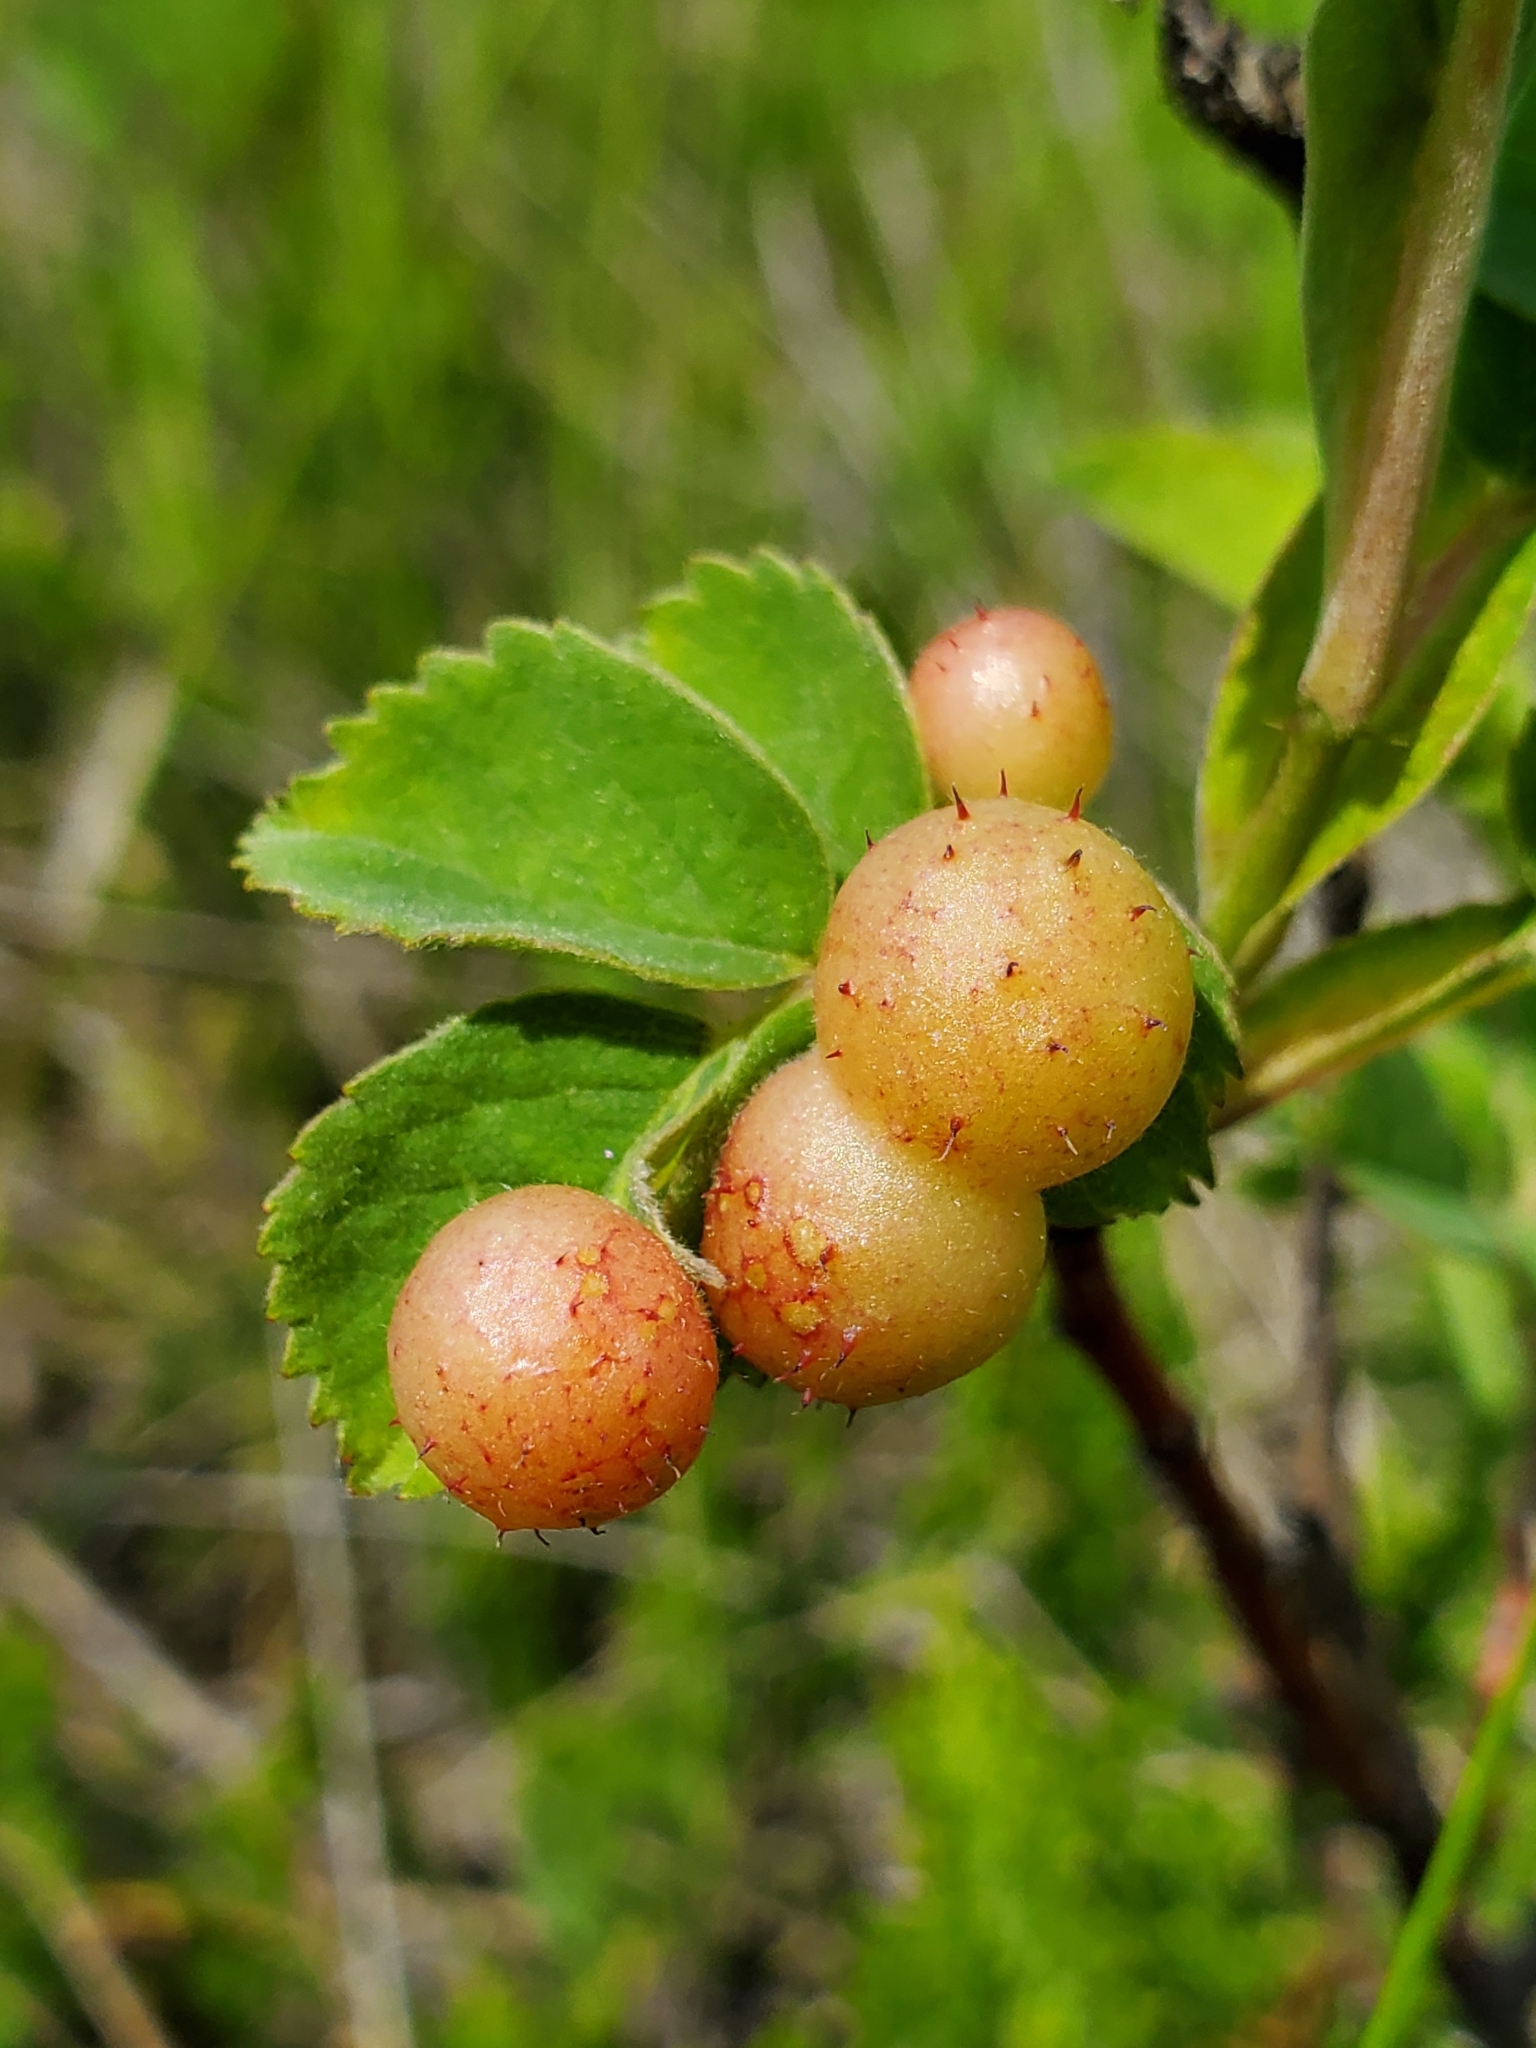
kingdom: Animalia
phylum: Arthropoda
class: Insecta
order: Hymenoptera
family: Cynipidae
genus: Diplolepis
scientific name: Diplolepis polita
